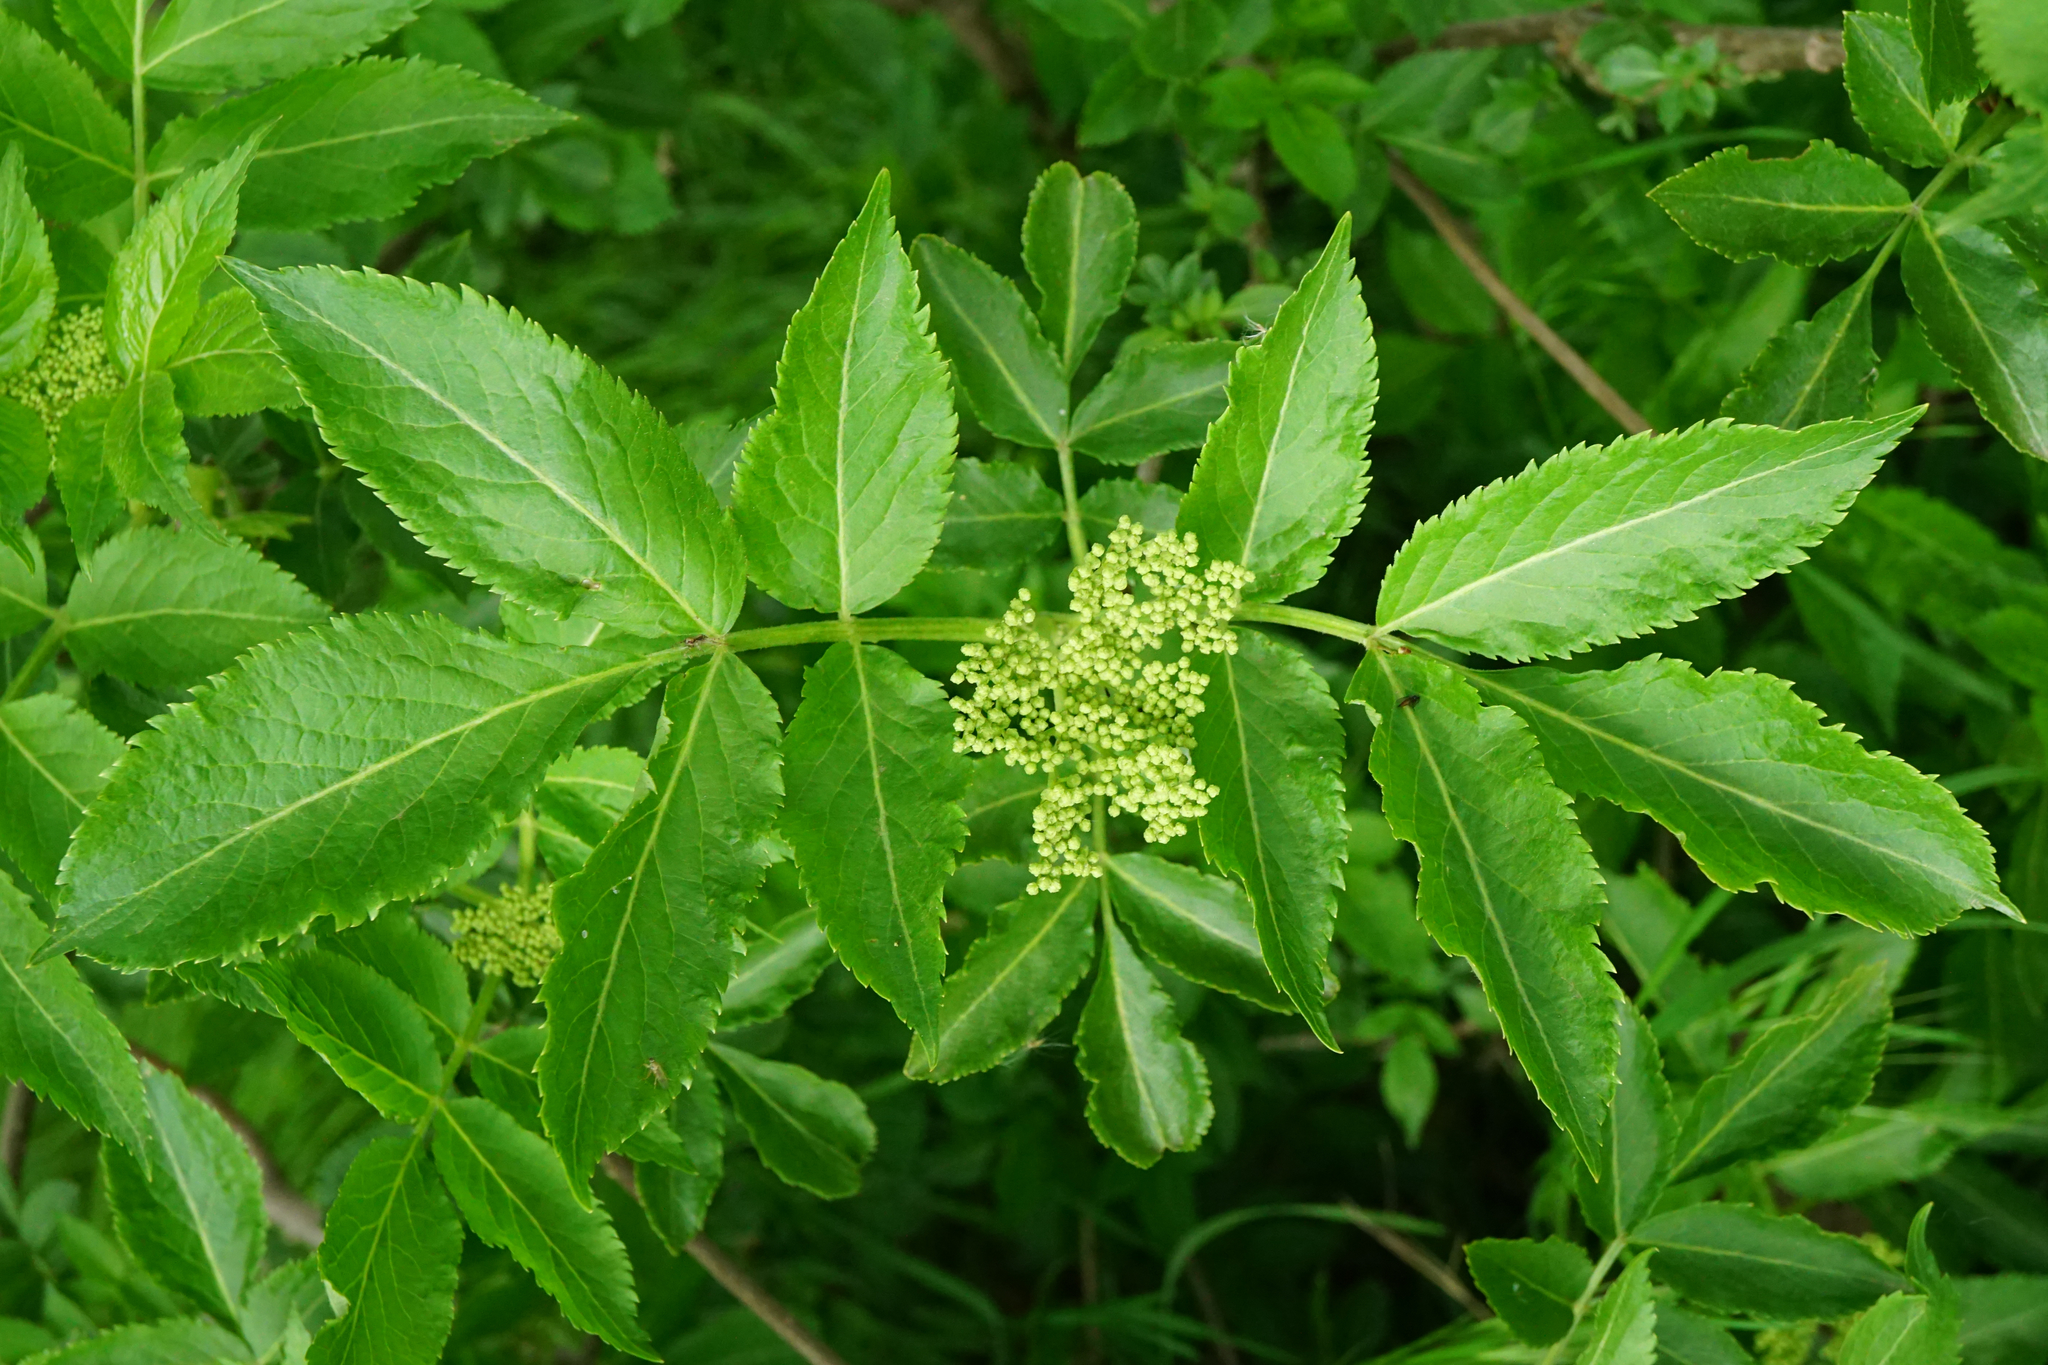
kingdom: Plantae
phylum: Tracheophyta
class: Magnoliopsida
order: Dipsacales
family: Viburnaceae
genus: Sambucus
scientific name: Sambucus nigra
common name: Elder
